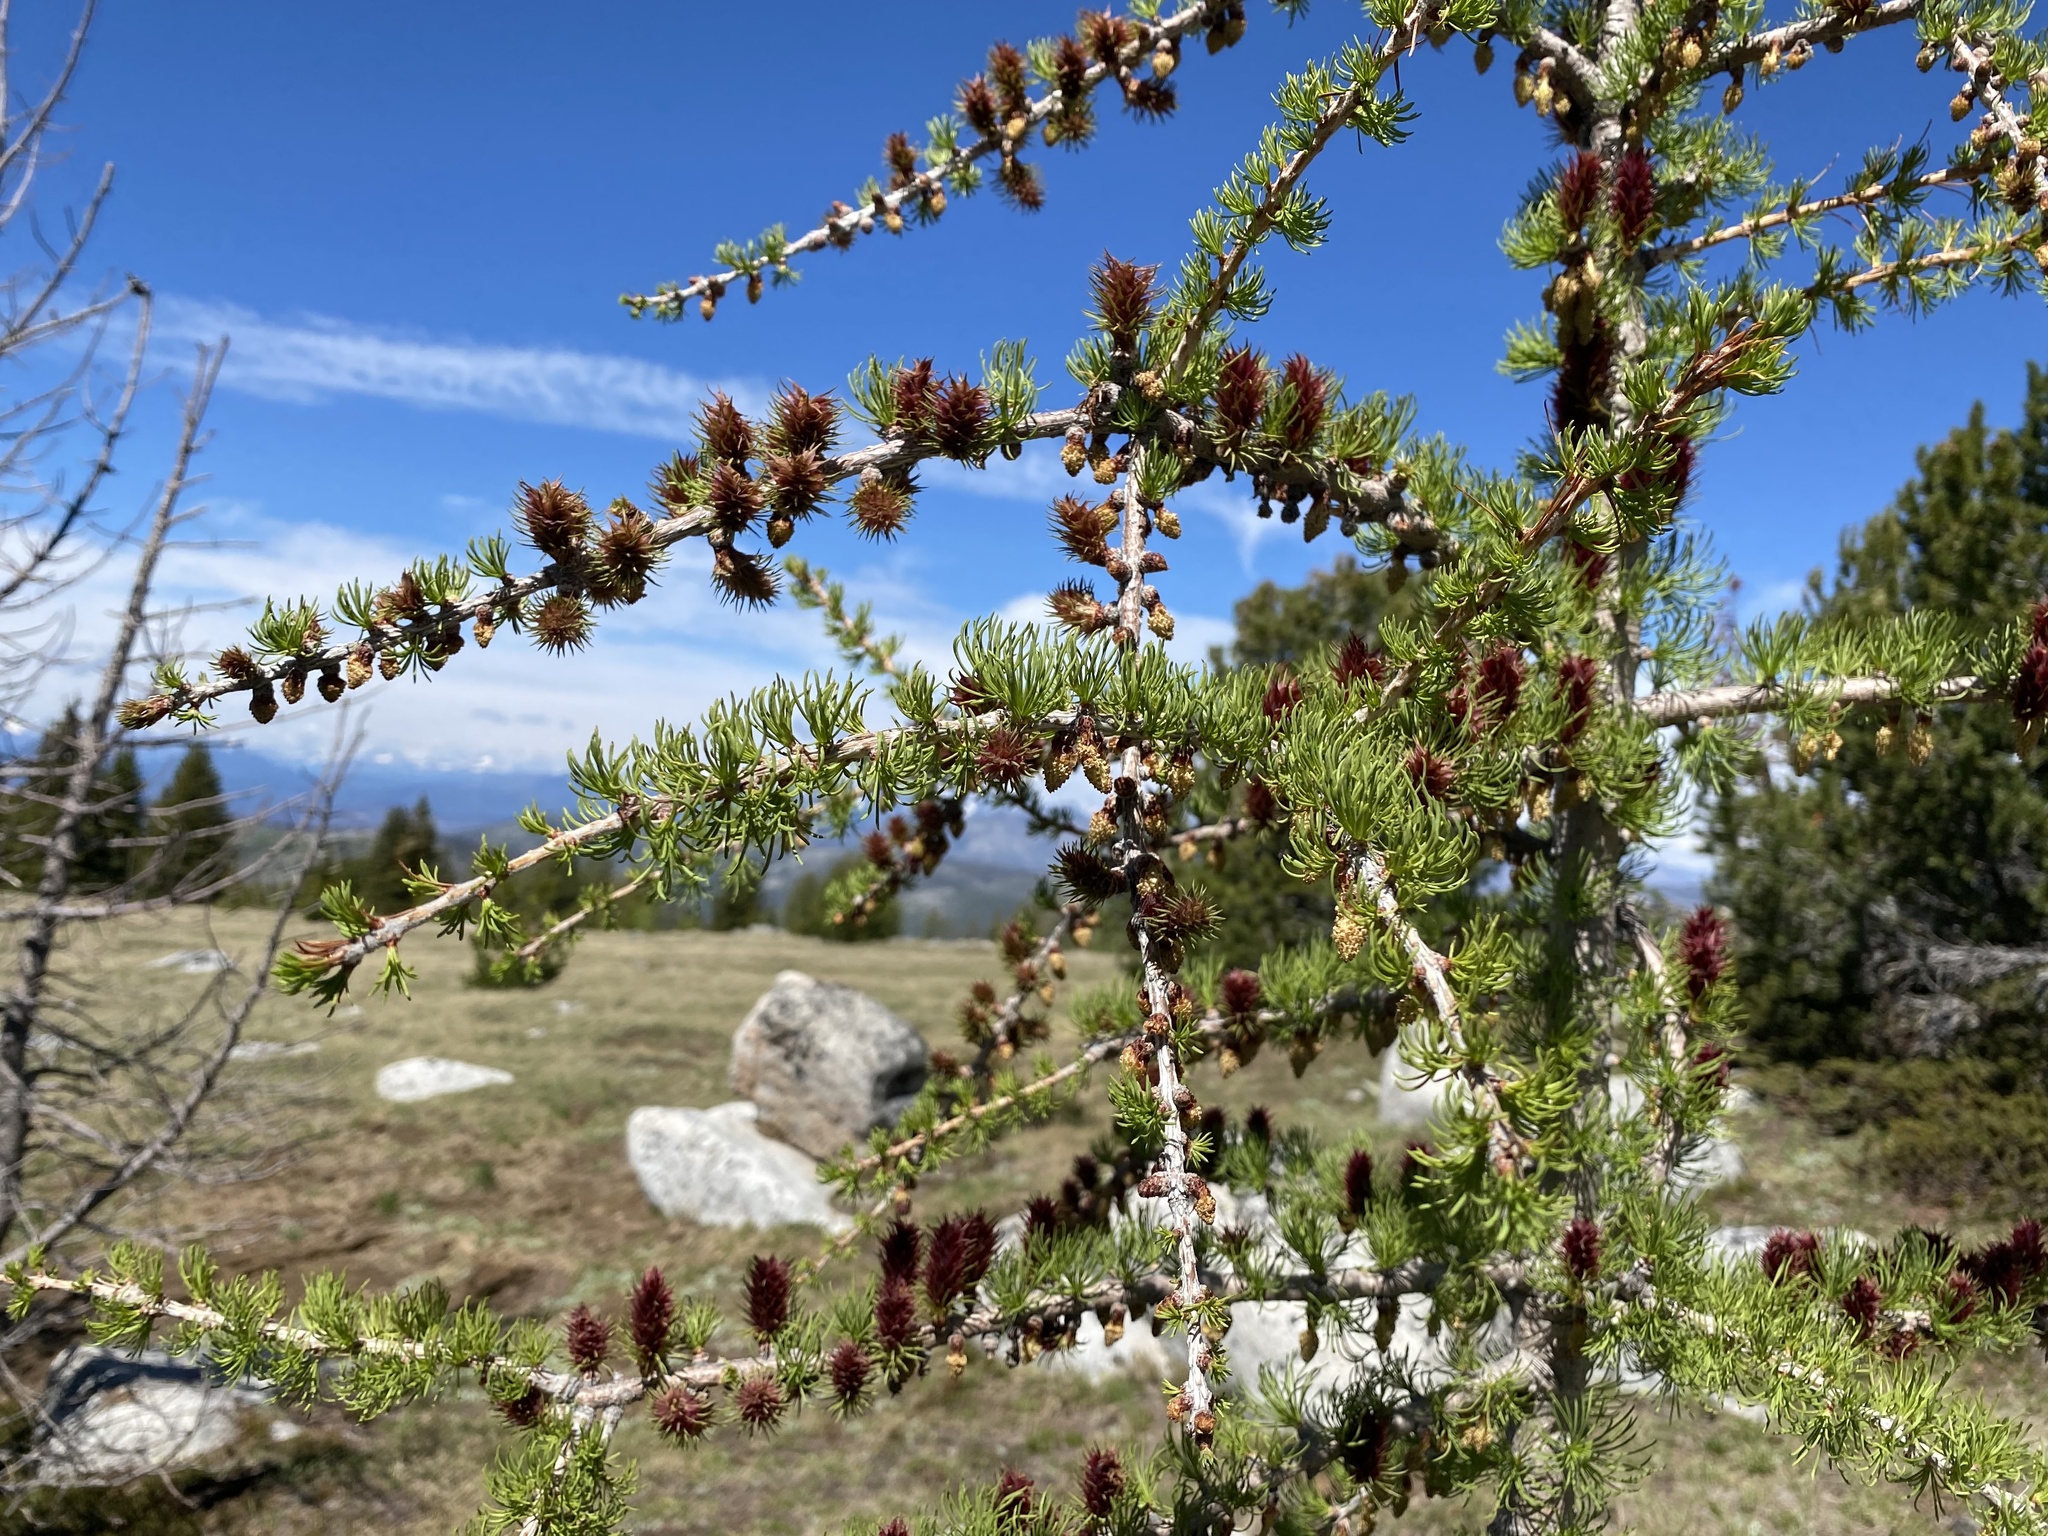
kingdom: Plantae
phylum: Tracheophyta
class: Pinopsida
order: Pinales
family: Pinaceae
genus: Larix
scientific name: Larix lyallii
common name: Alpine larch
